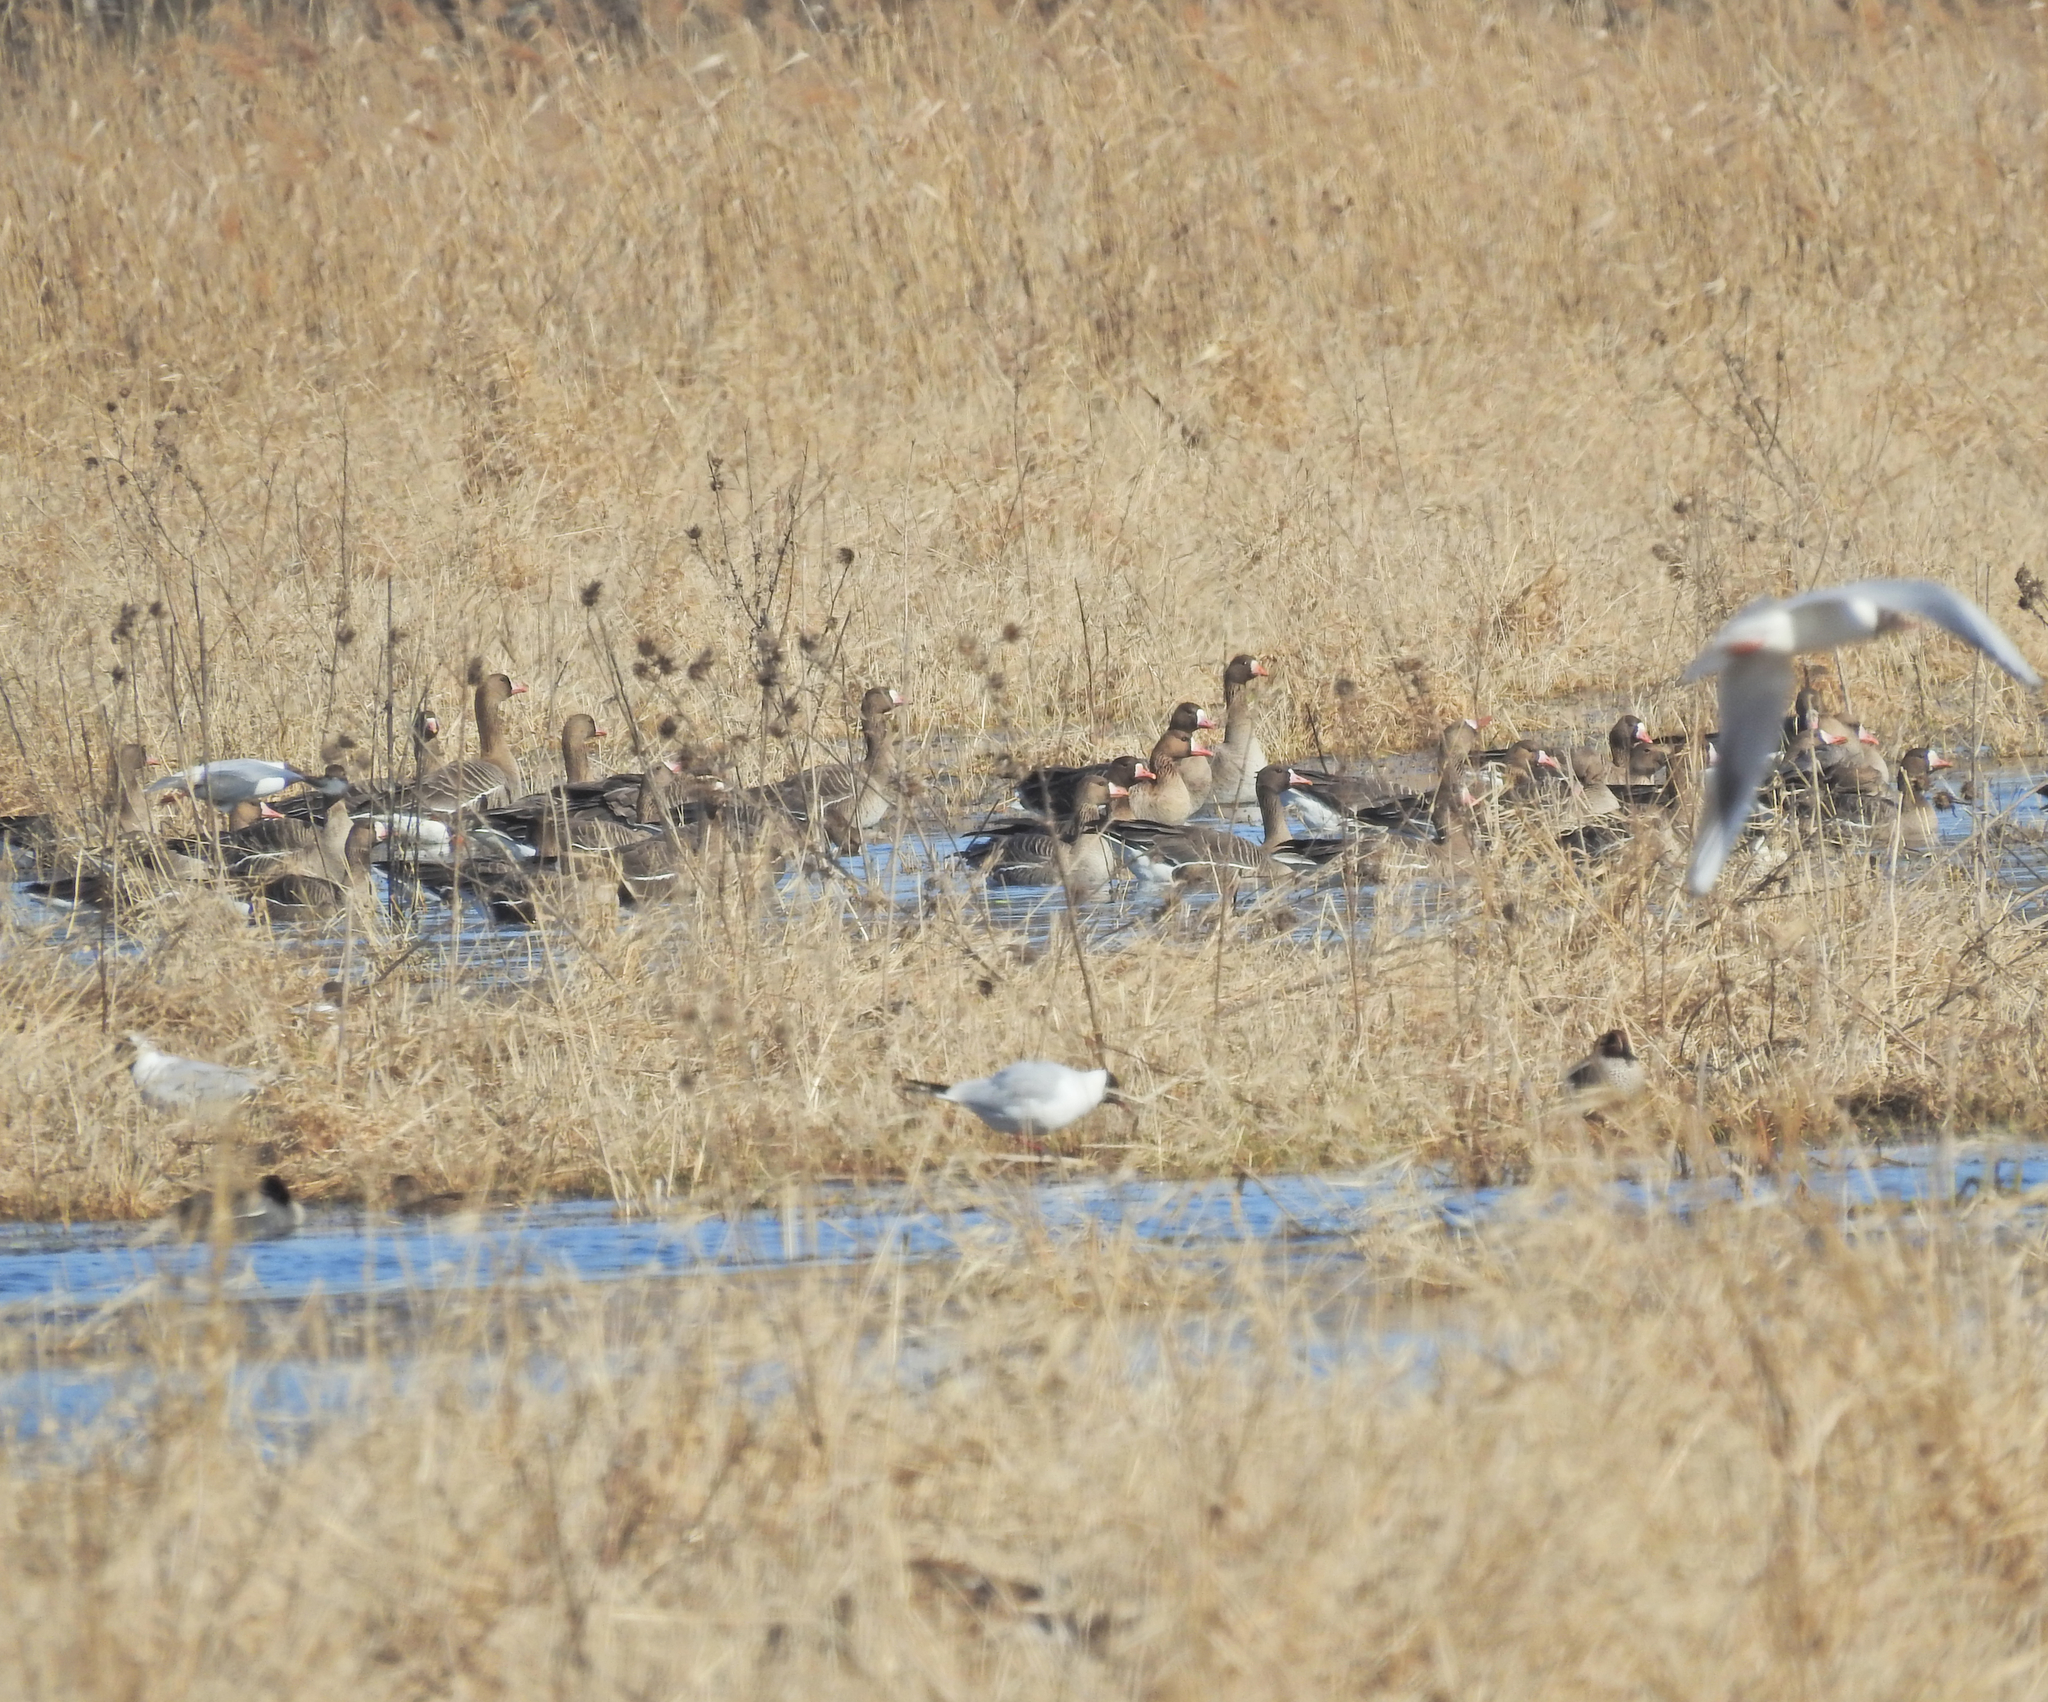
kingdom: Animalia
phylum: Chordata
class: Aves
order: Anseriformes
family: Anatidae
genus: Anser
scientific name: Anser albifrons
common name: Greater white-fronted goose
